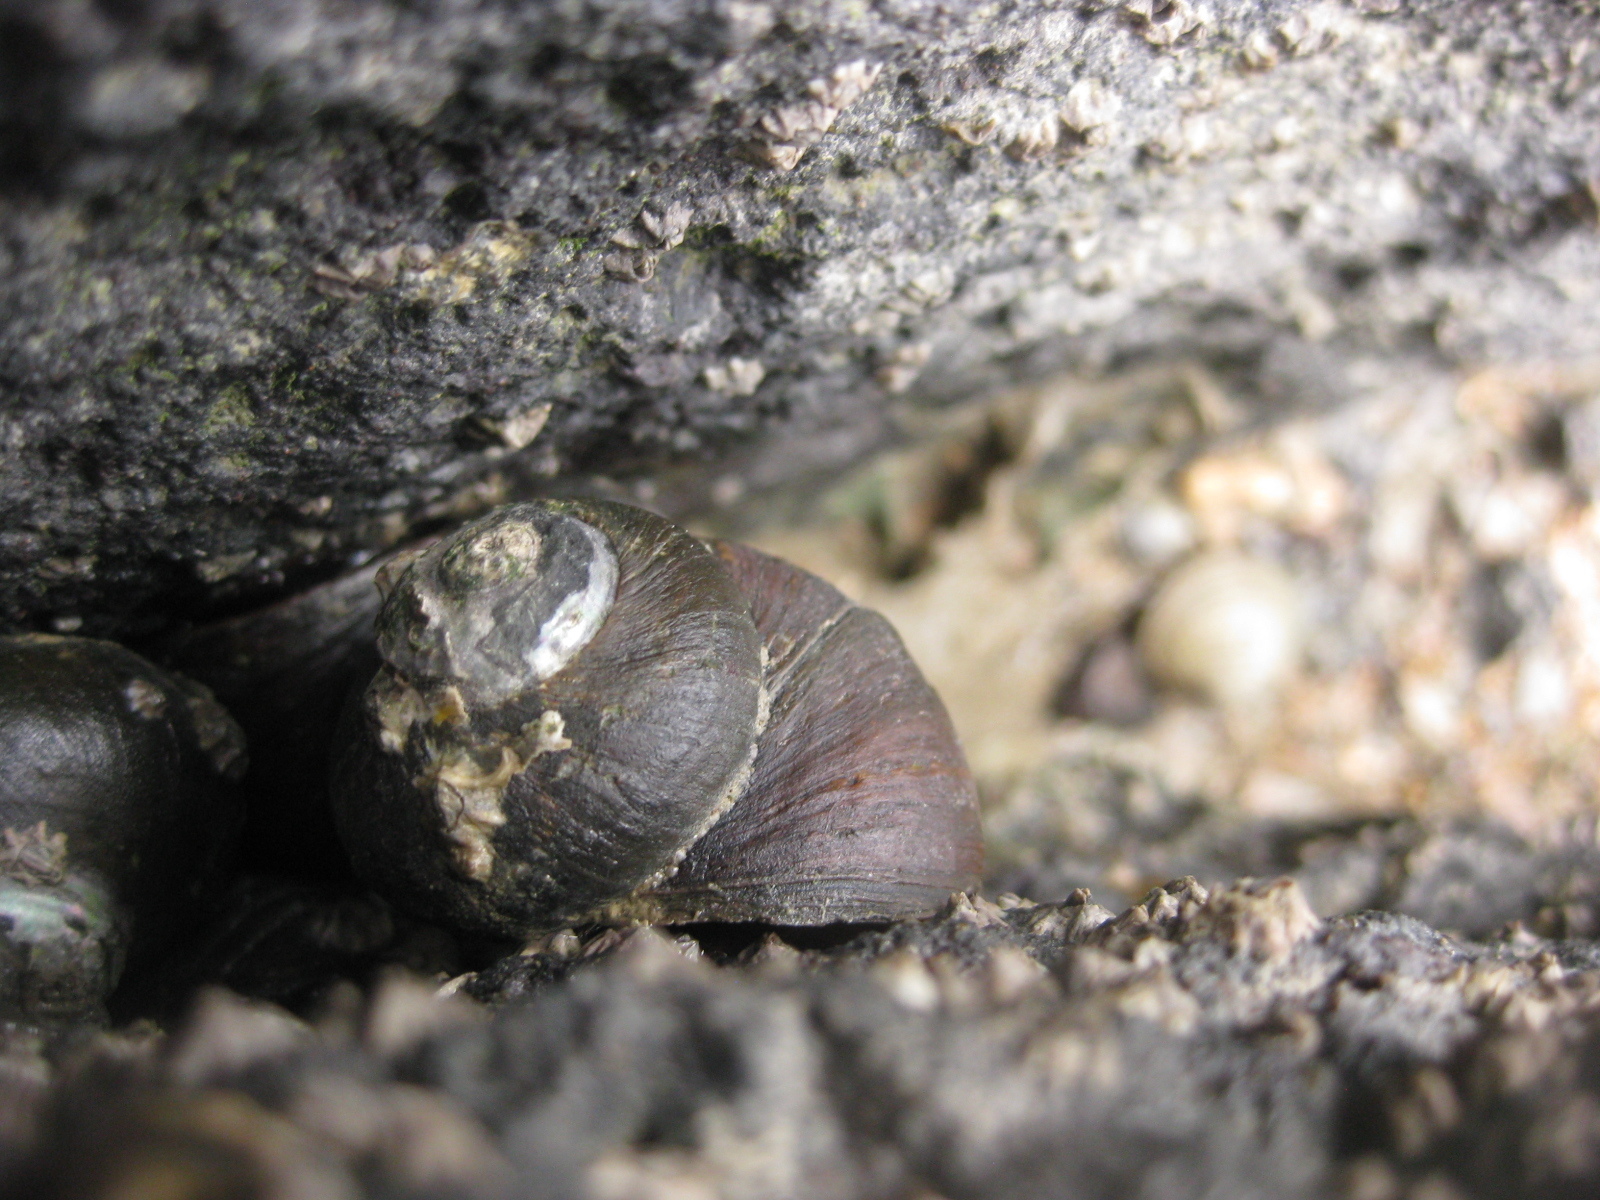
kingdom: Animalia
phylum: Mollusca
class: Gastropoda
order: Trochida
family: Turbinidae
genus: Lunella
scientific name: Lunella smaragda
